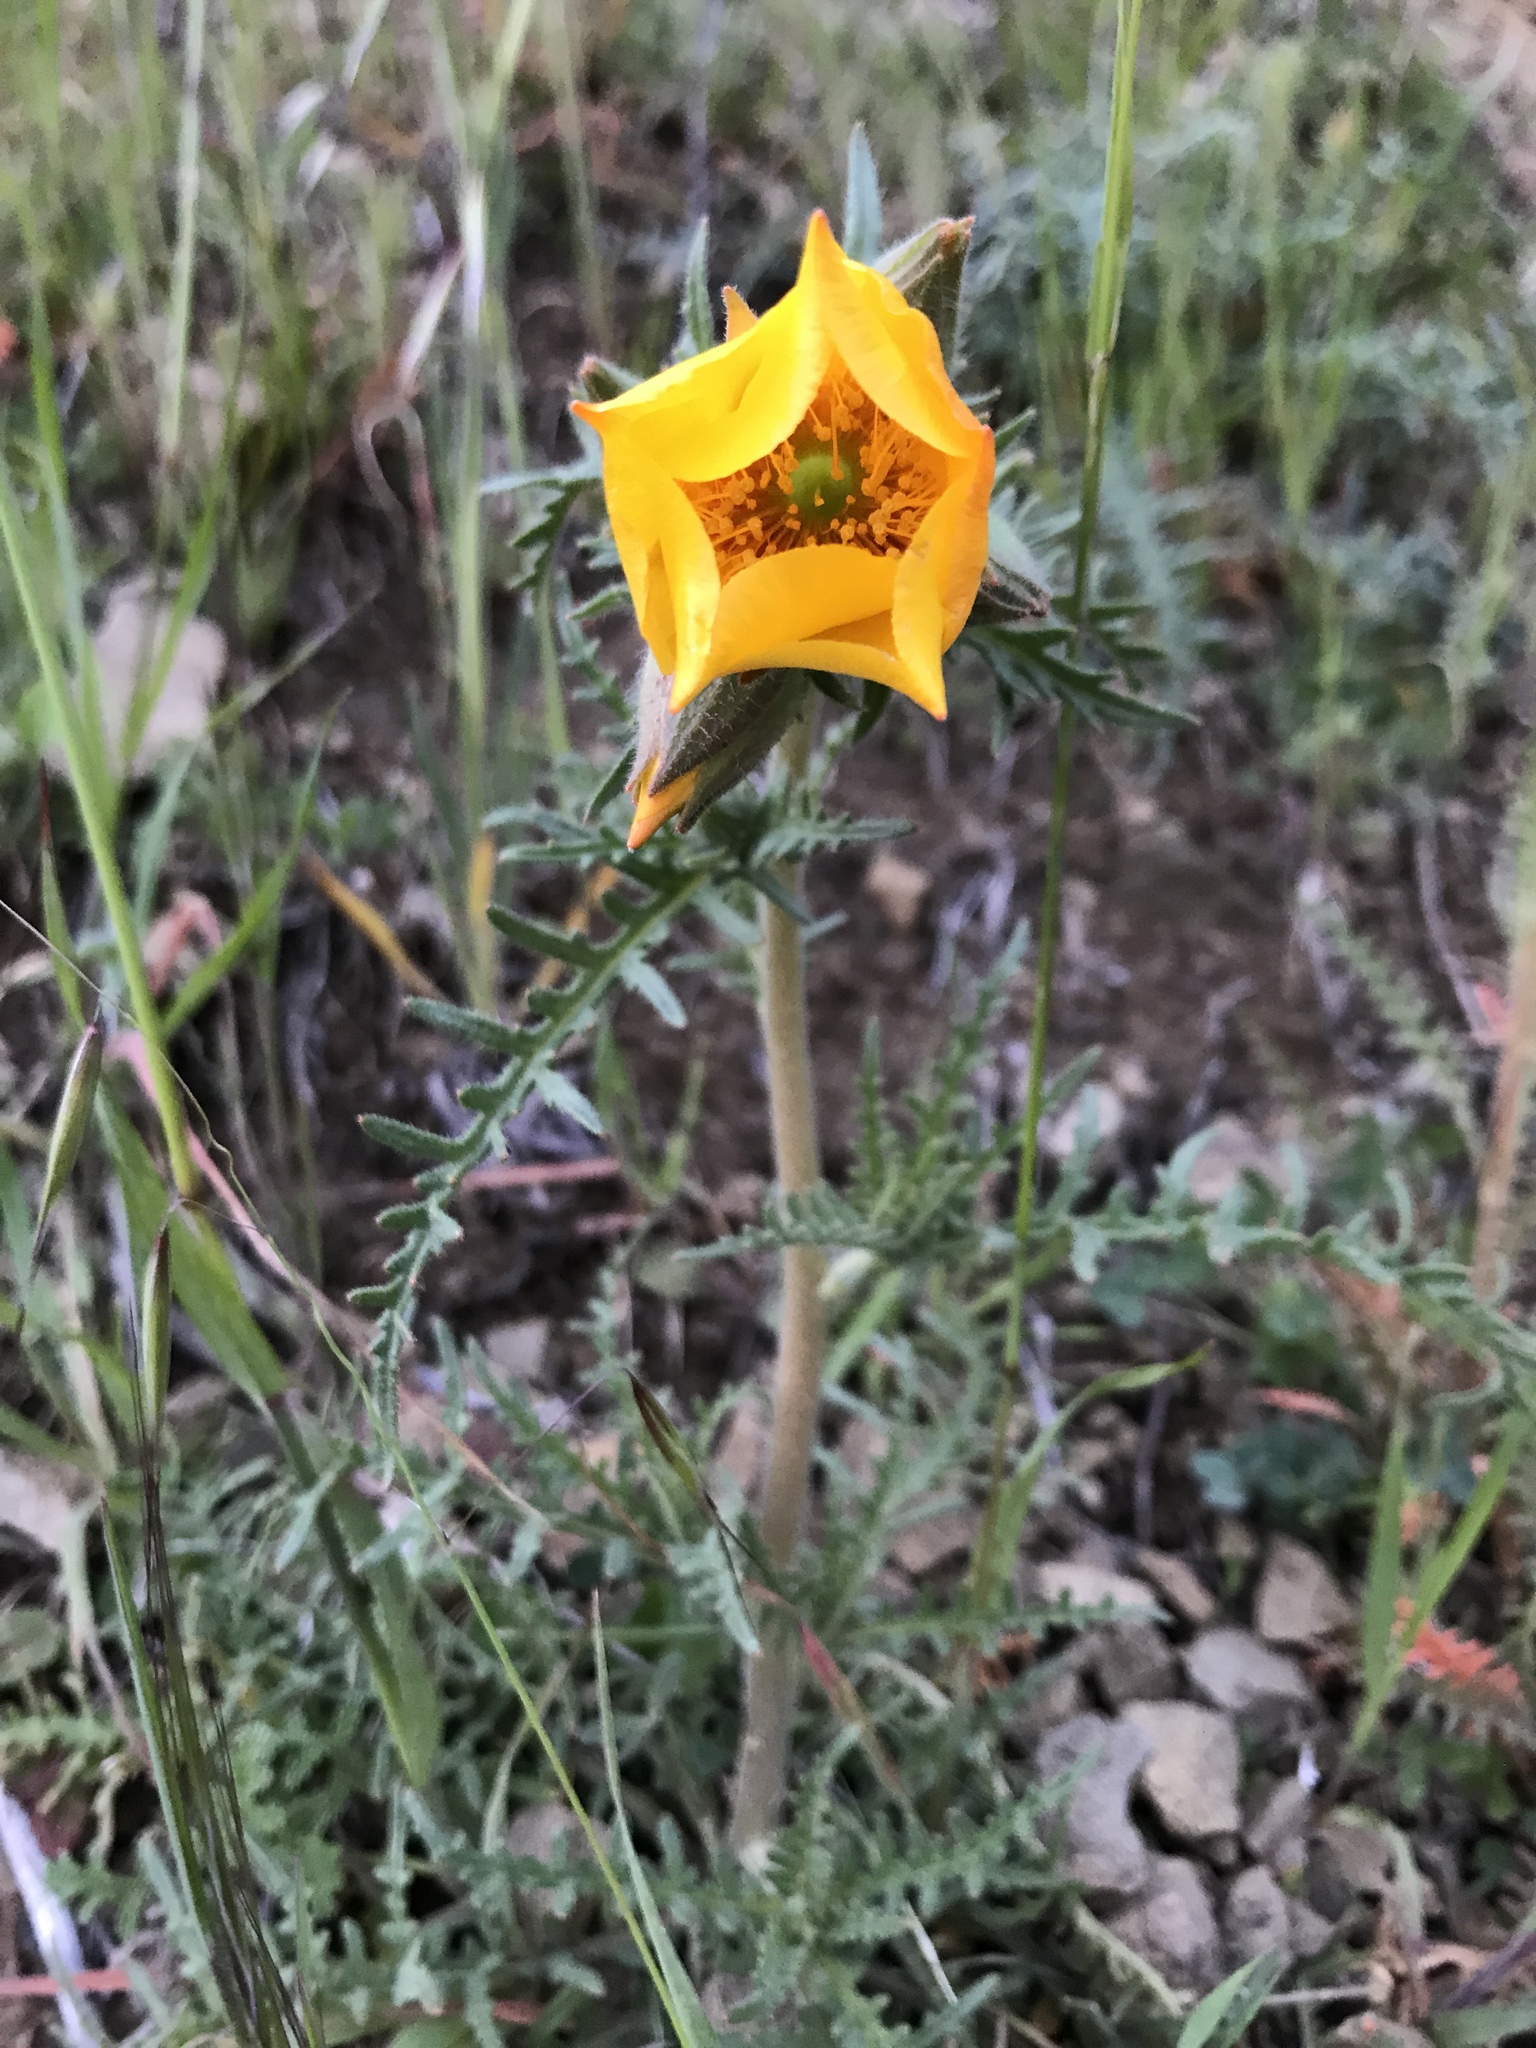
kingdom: Plantae
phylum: Tracheophyta
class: Magnoliopsida
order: Cornales
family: Loasaceae
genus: Mentzelia
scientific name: Mentzelia lindleyi
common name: Golden bartonia
